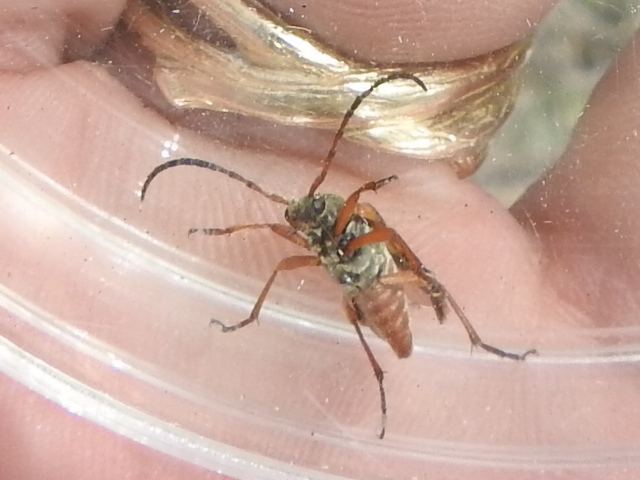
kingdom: Animalia
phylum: Arthropoda
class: Insecta
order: Coleoptera
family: Cerambycidae
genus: Typocerus
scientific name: Typocerus sinuatus
